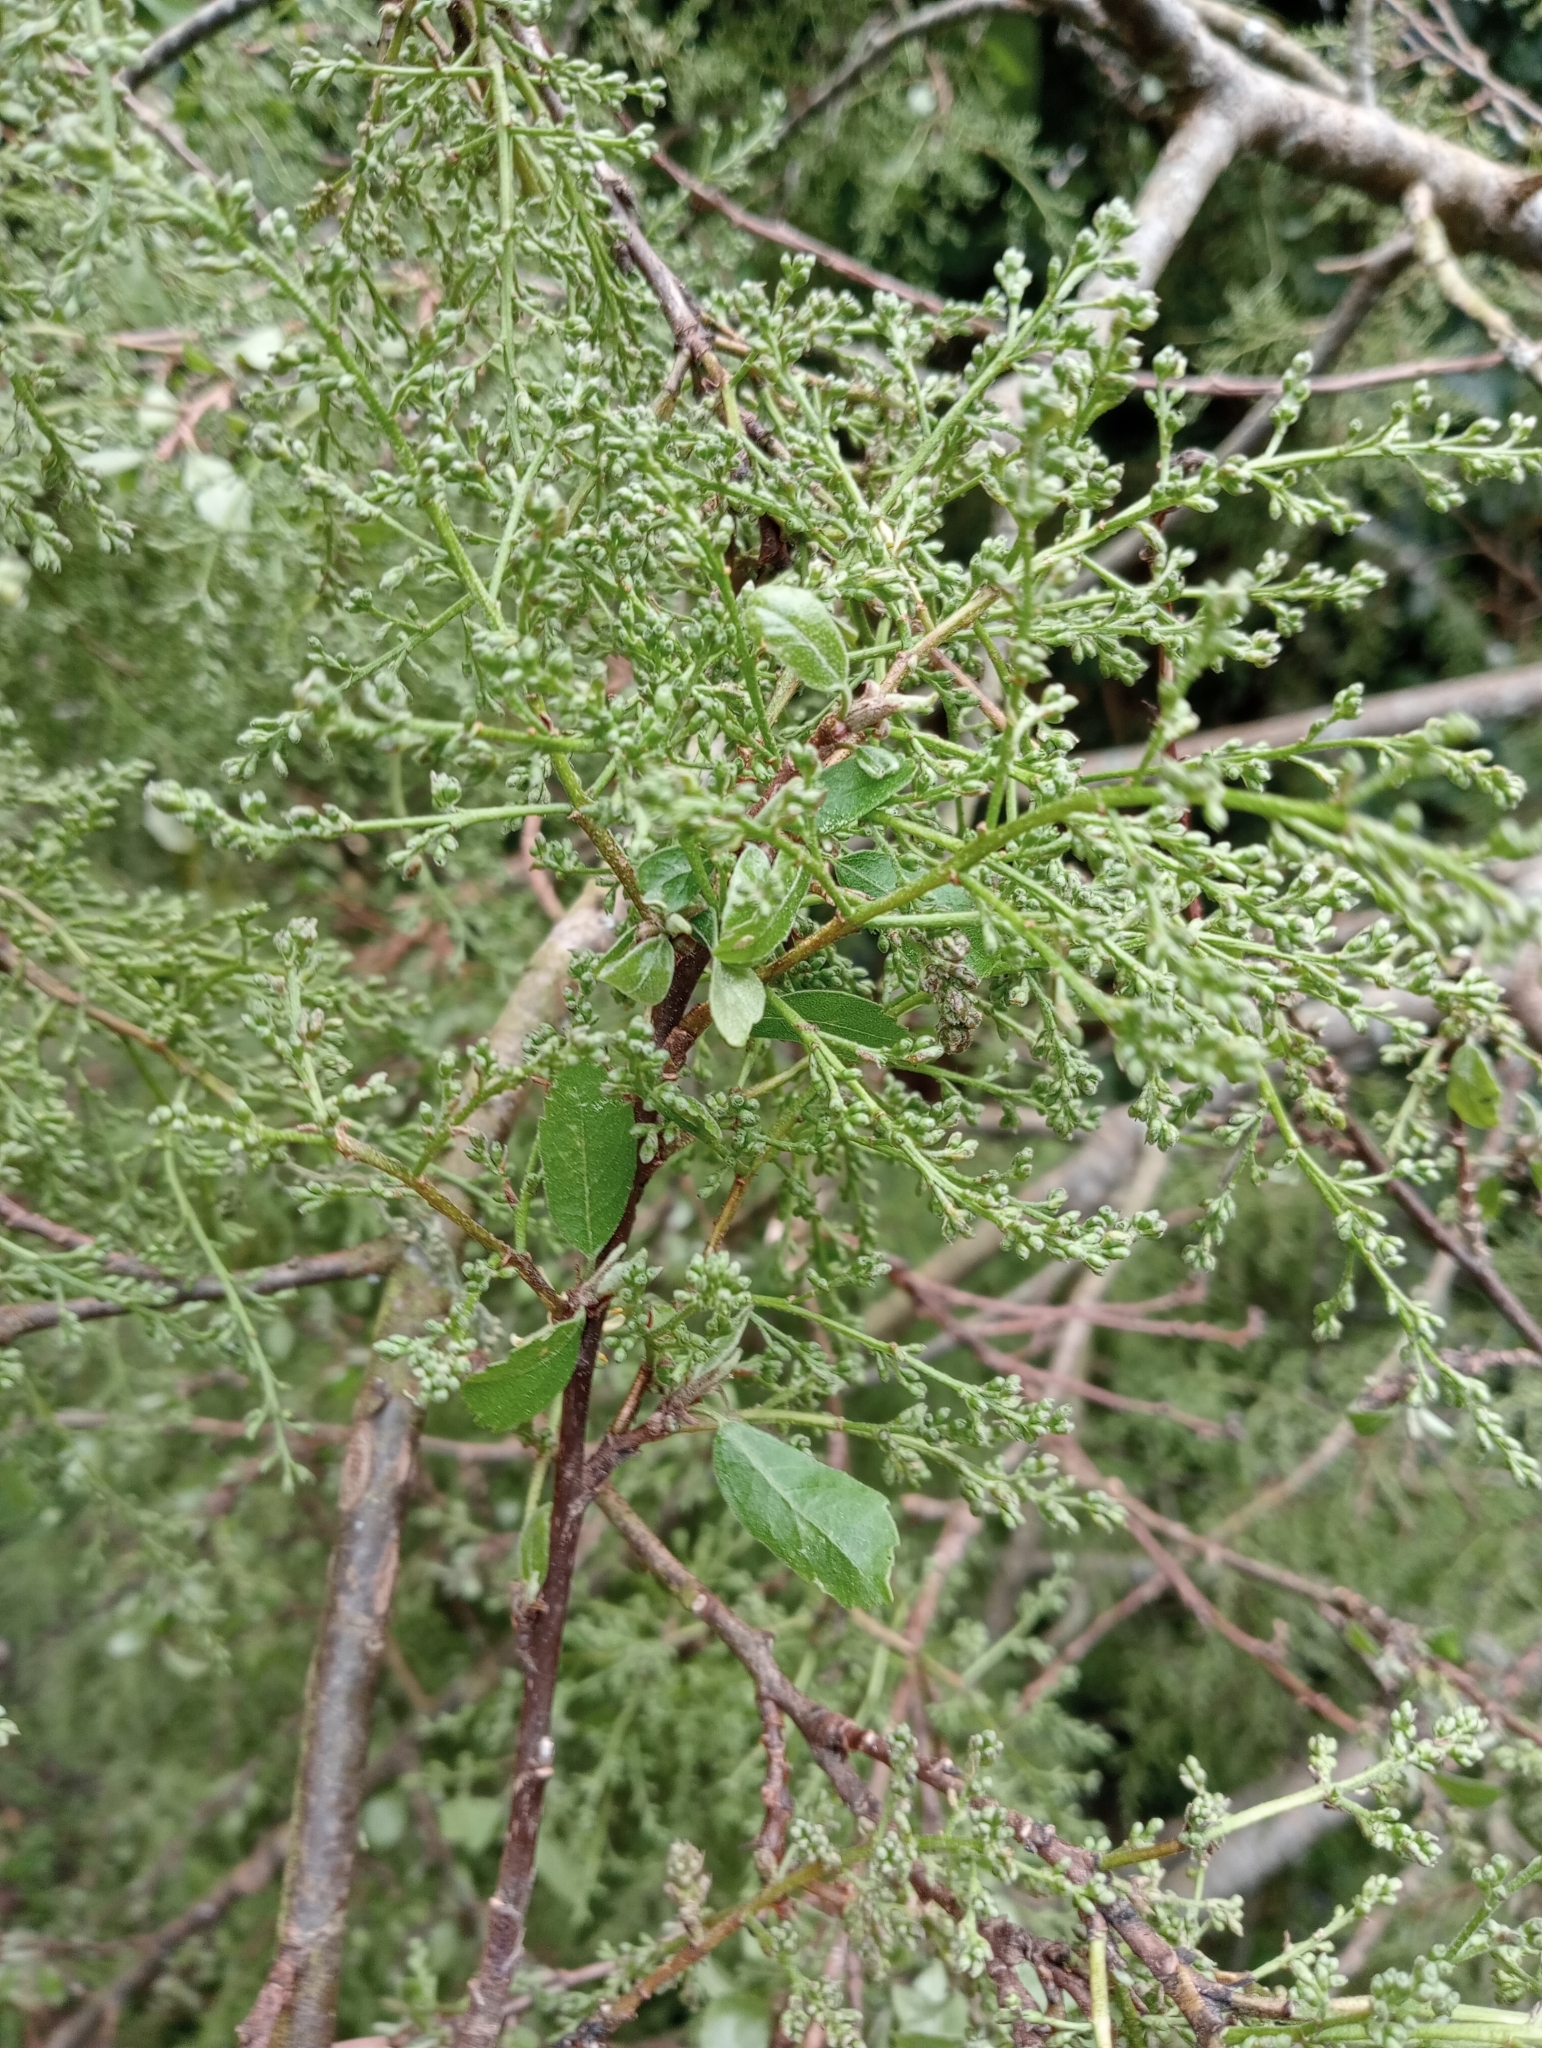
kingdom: Plantae
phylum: Tracheophyta
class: Magnoliopsida
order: Malvales
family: Malvaceae
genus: Plagianthus
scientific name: Plagianthus regius
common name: Manatu
